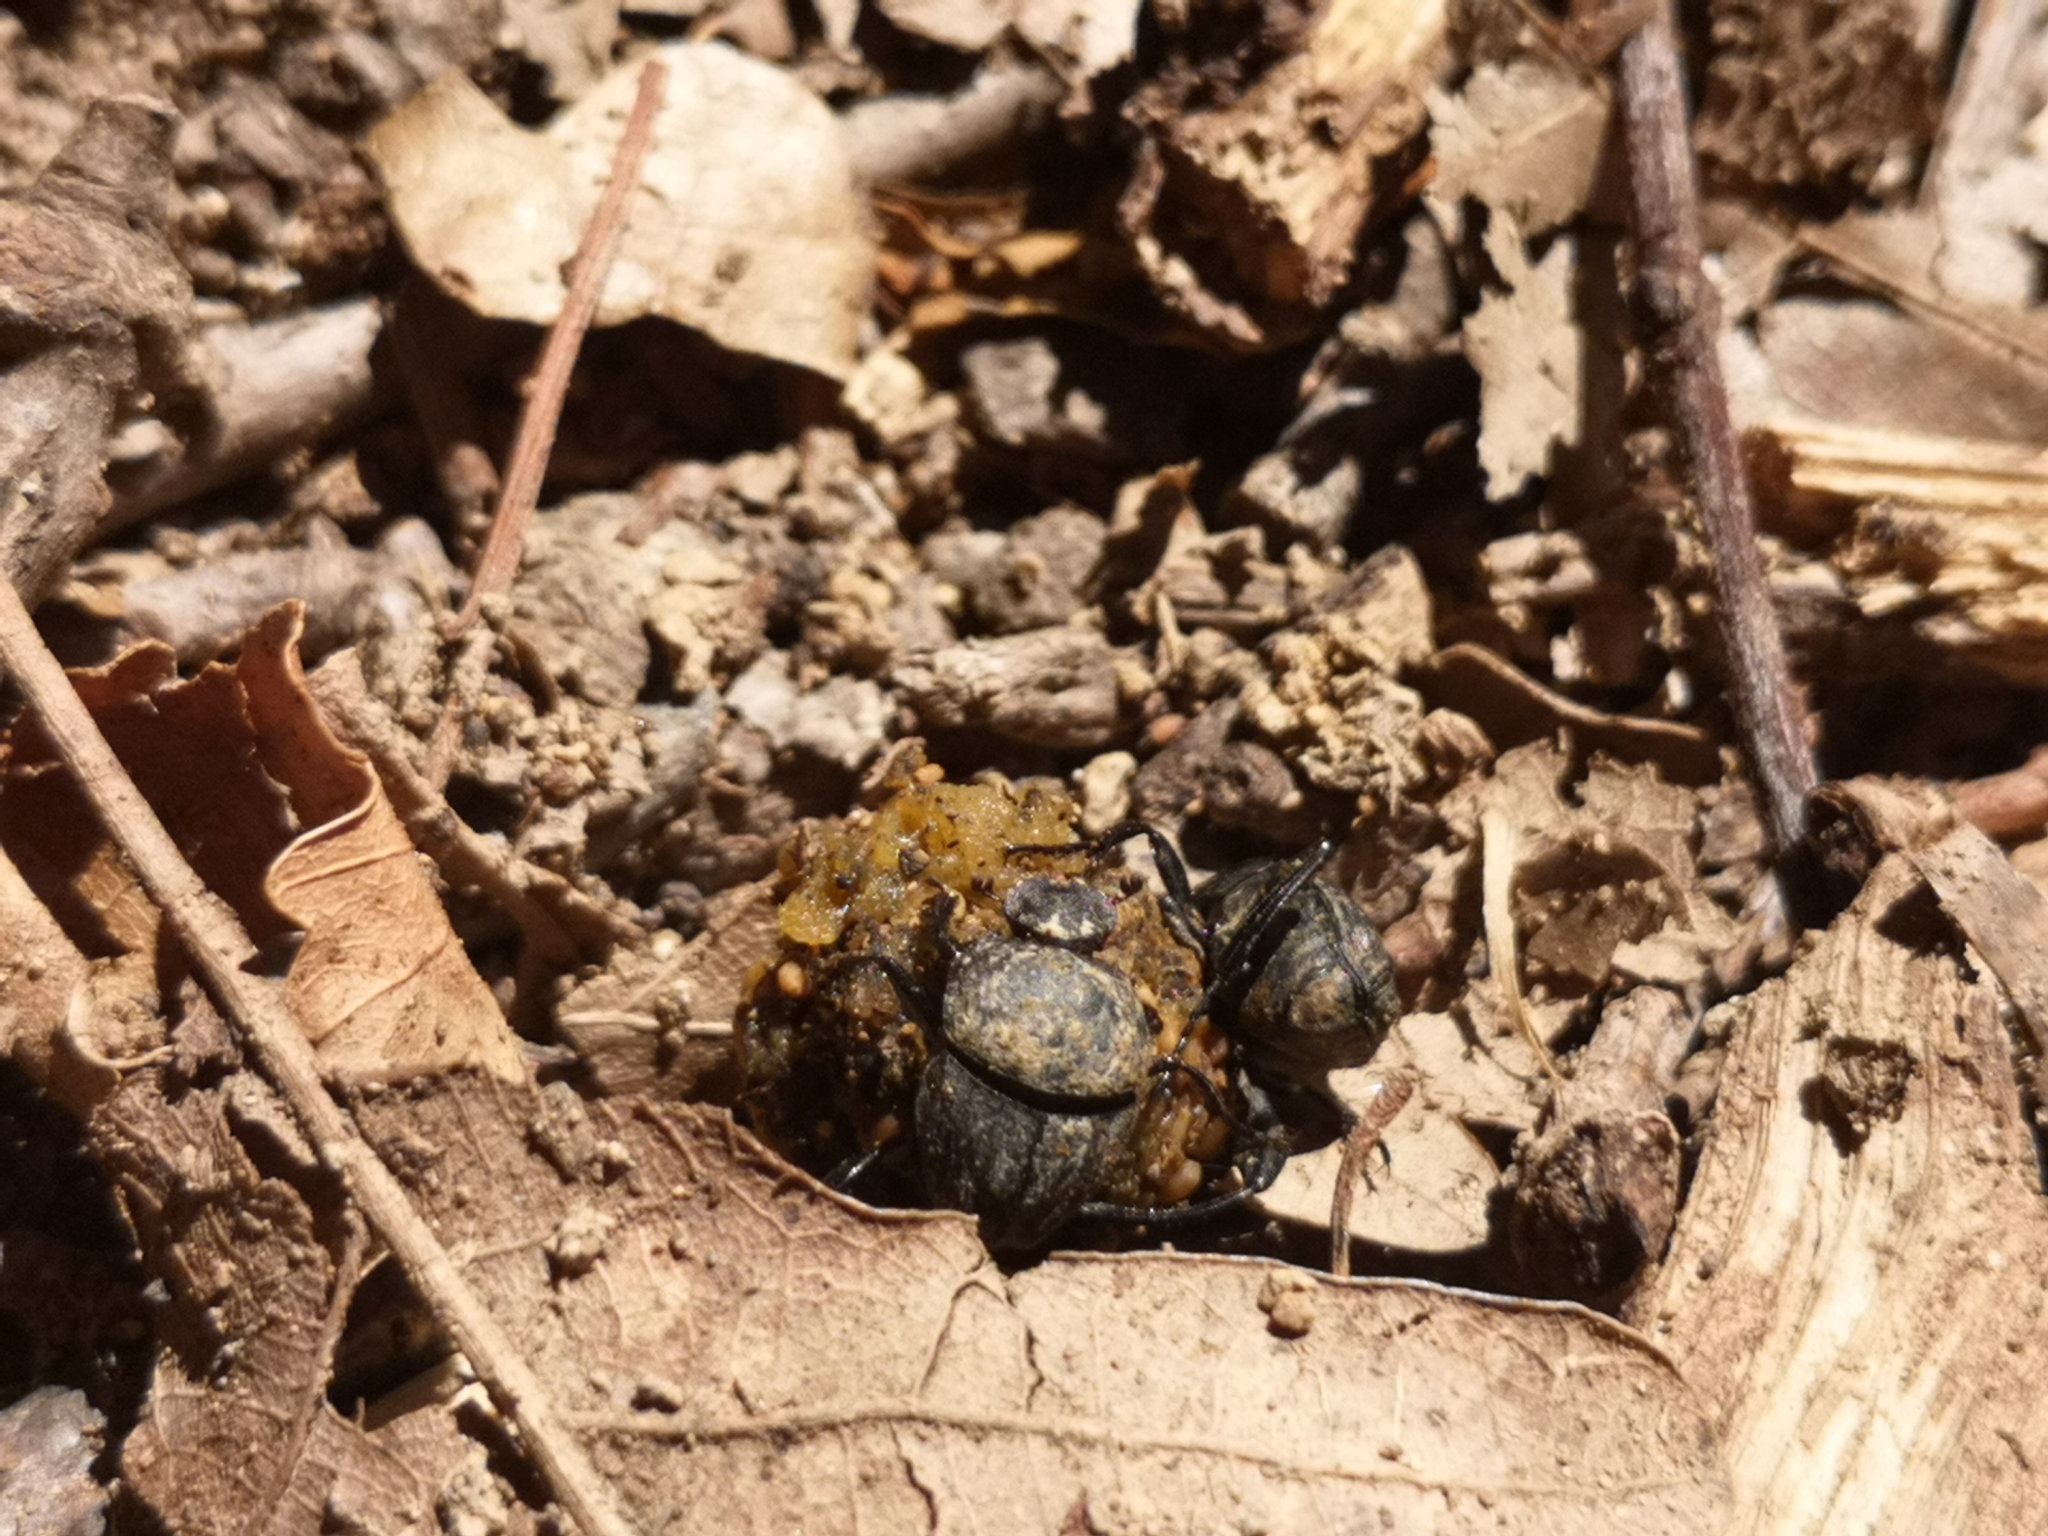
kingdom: Animalia
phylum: Arthropoda
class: Insecta
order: Coleoptera
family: Scarabaeidae
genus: Sisyphus
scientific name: Sisyphus schaefferi
